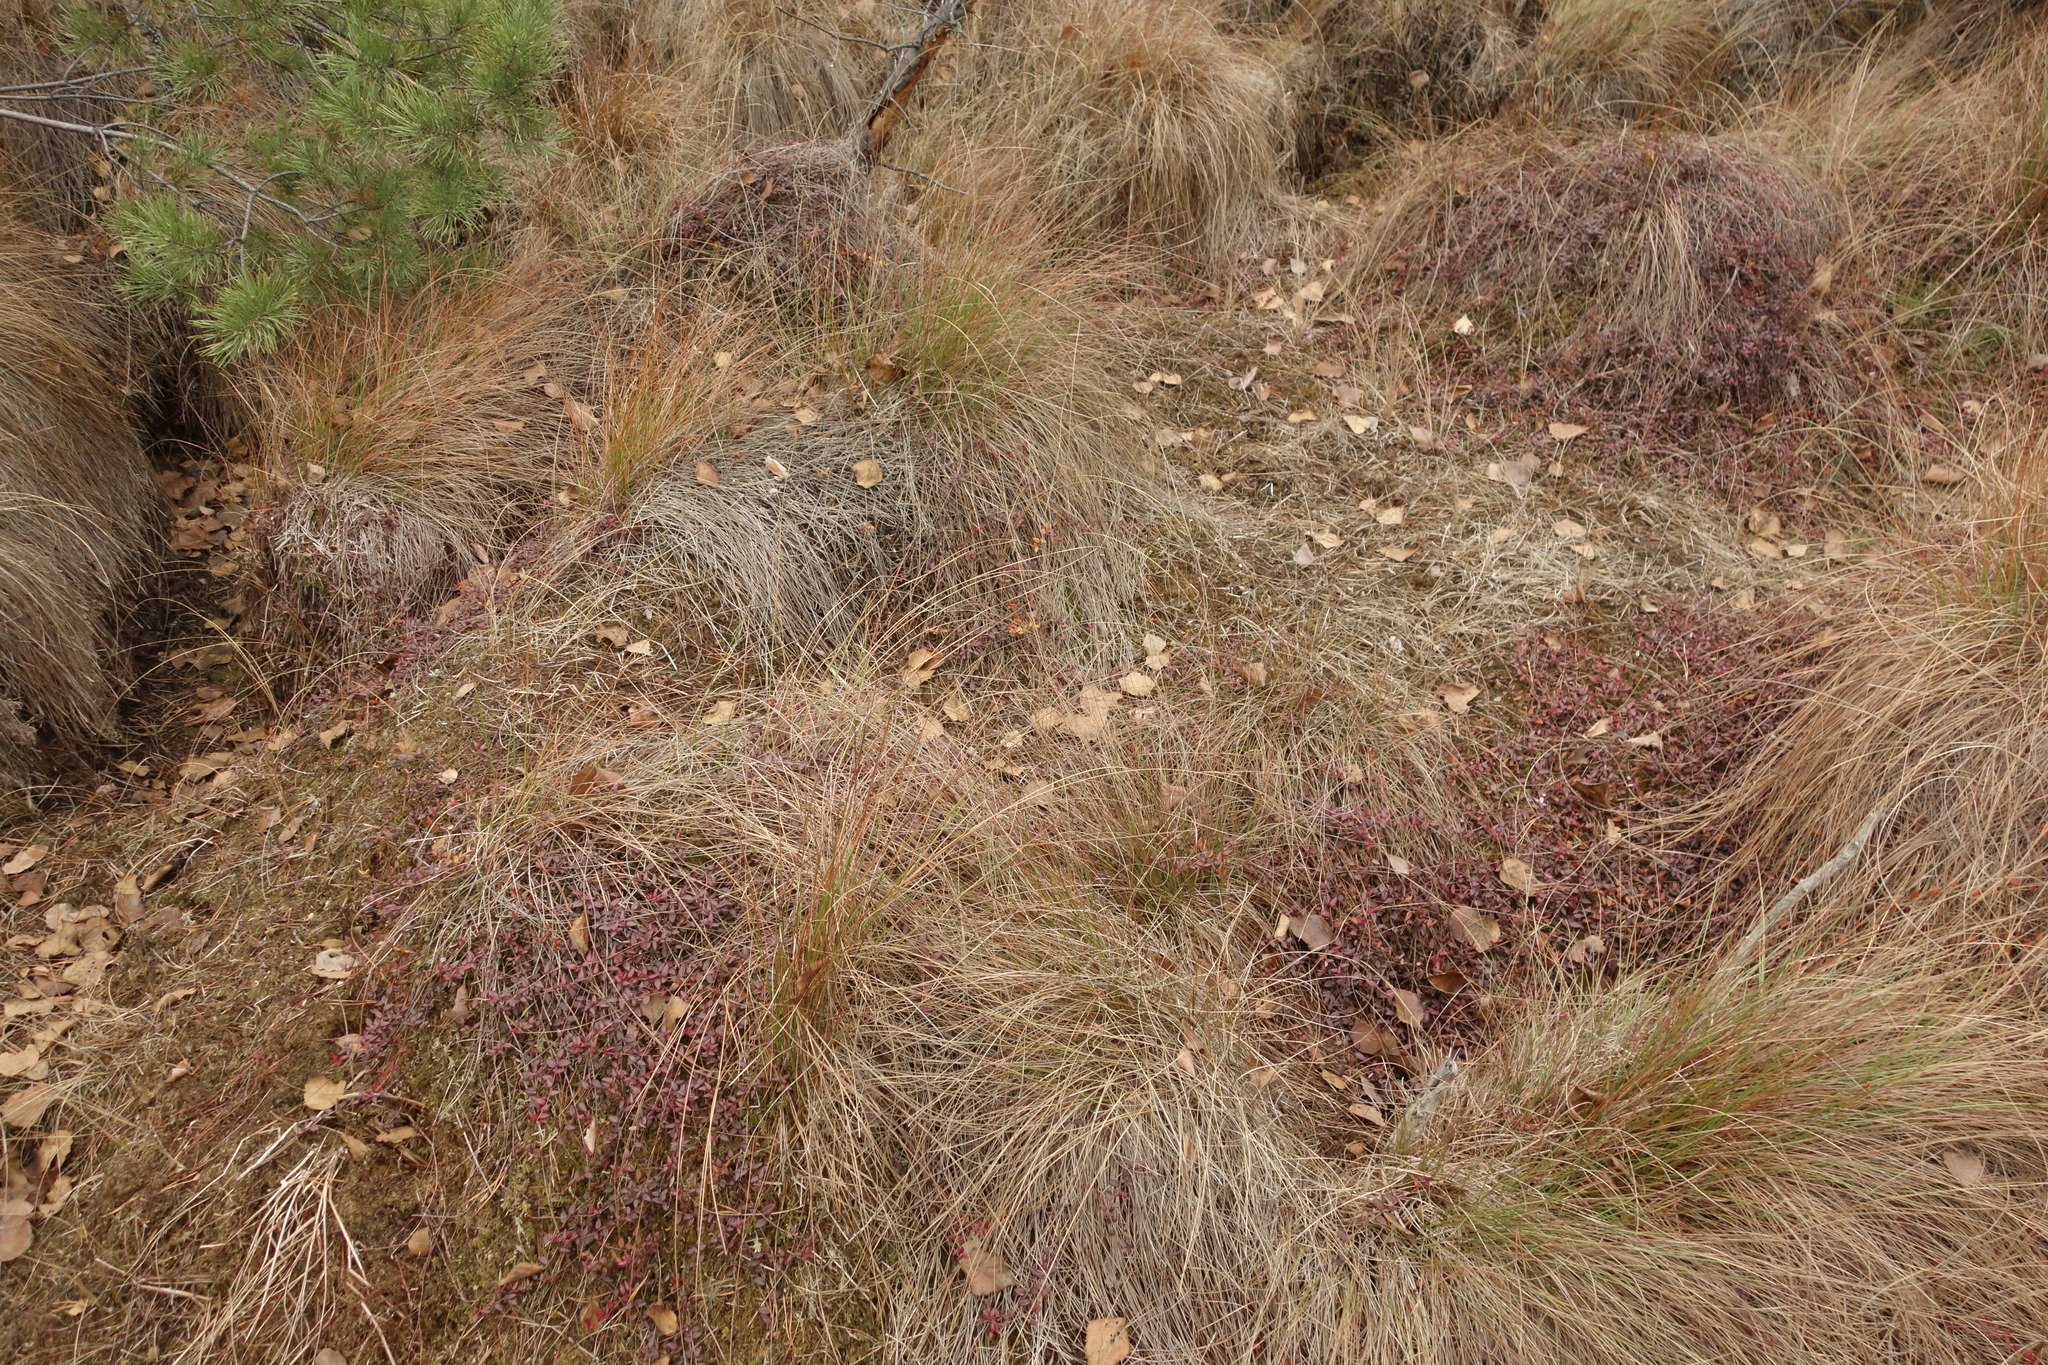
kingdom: Plantae
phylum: Tracheophyta
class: Magnoliopsida
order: Ericales
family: Ericaceae
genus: Vaccinium
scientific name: Vaccinium oxycoccos
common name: Cranberry
